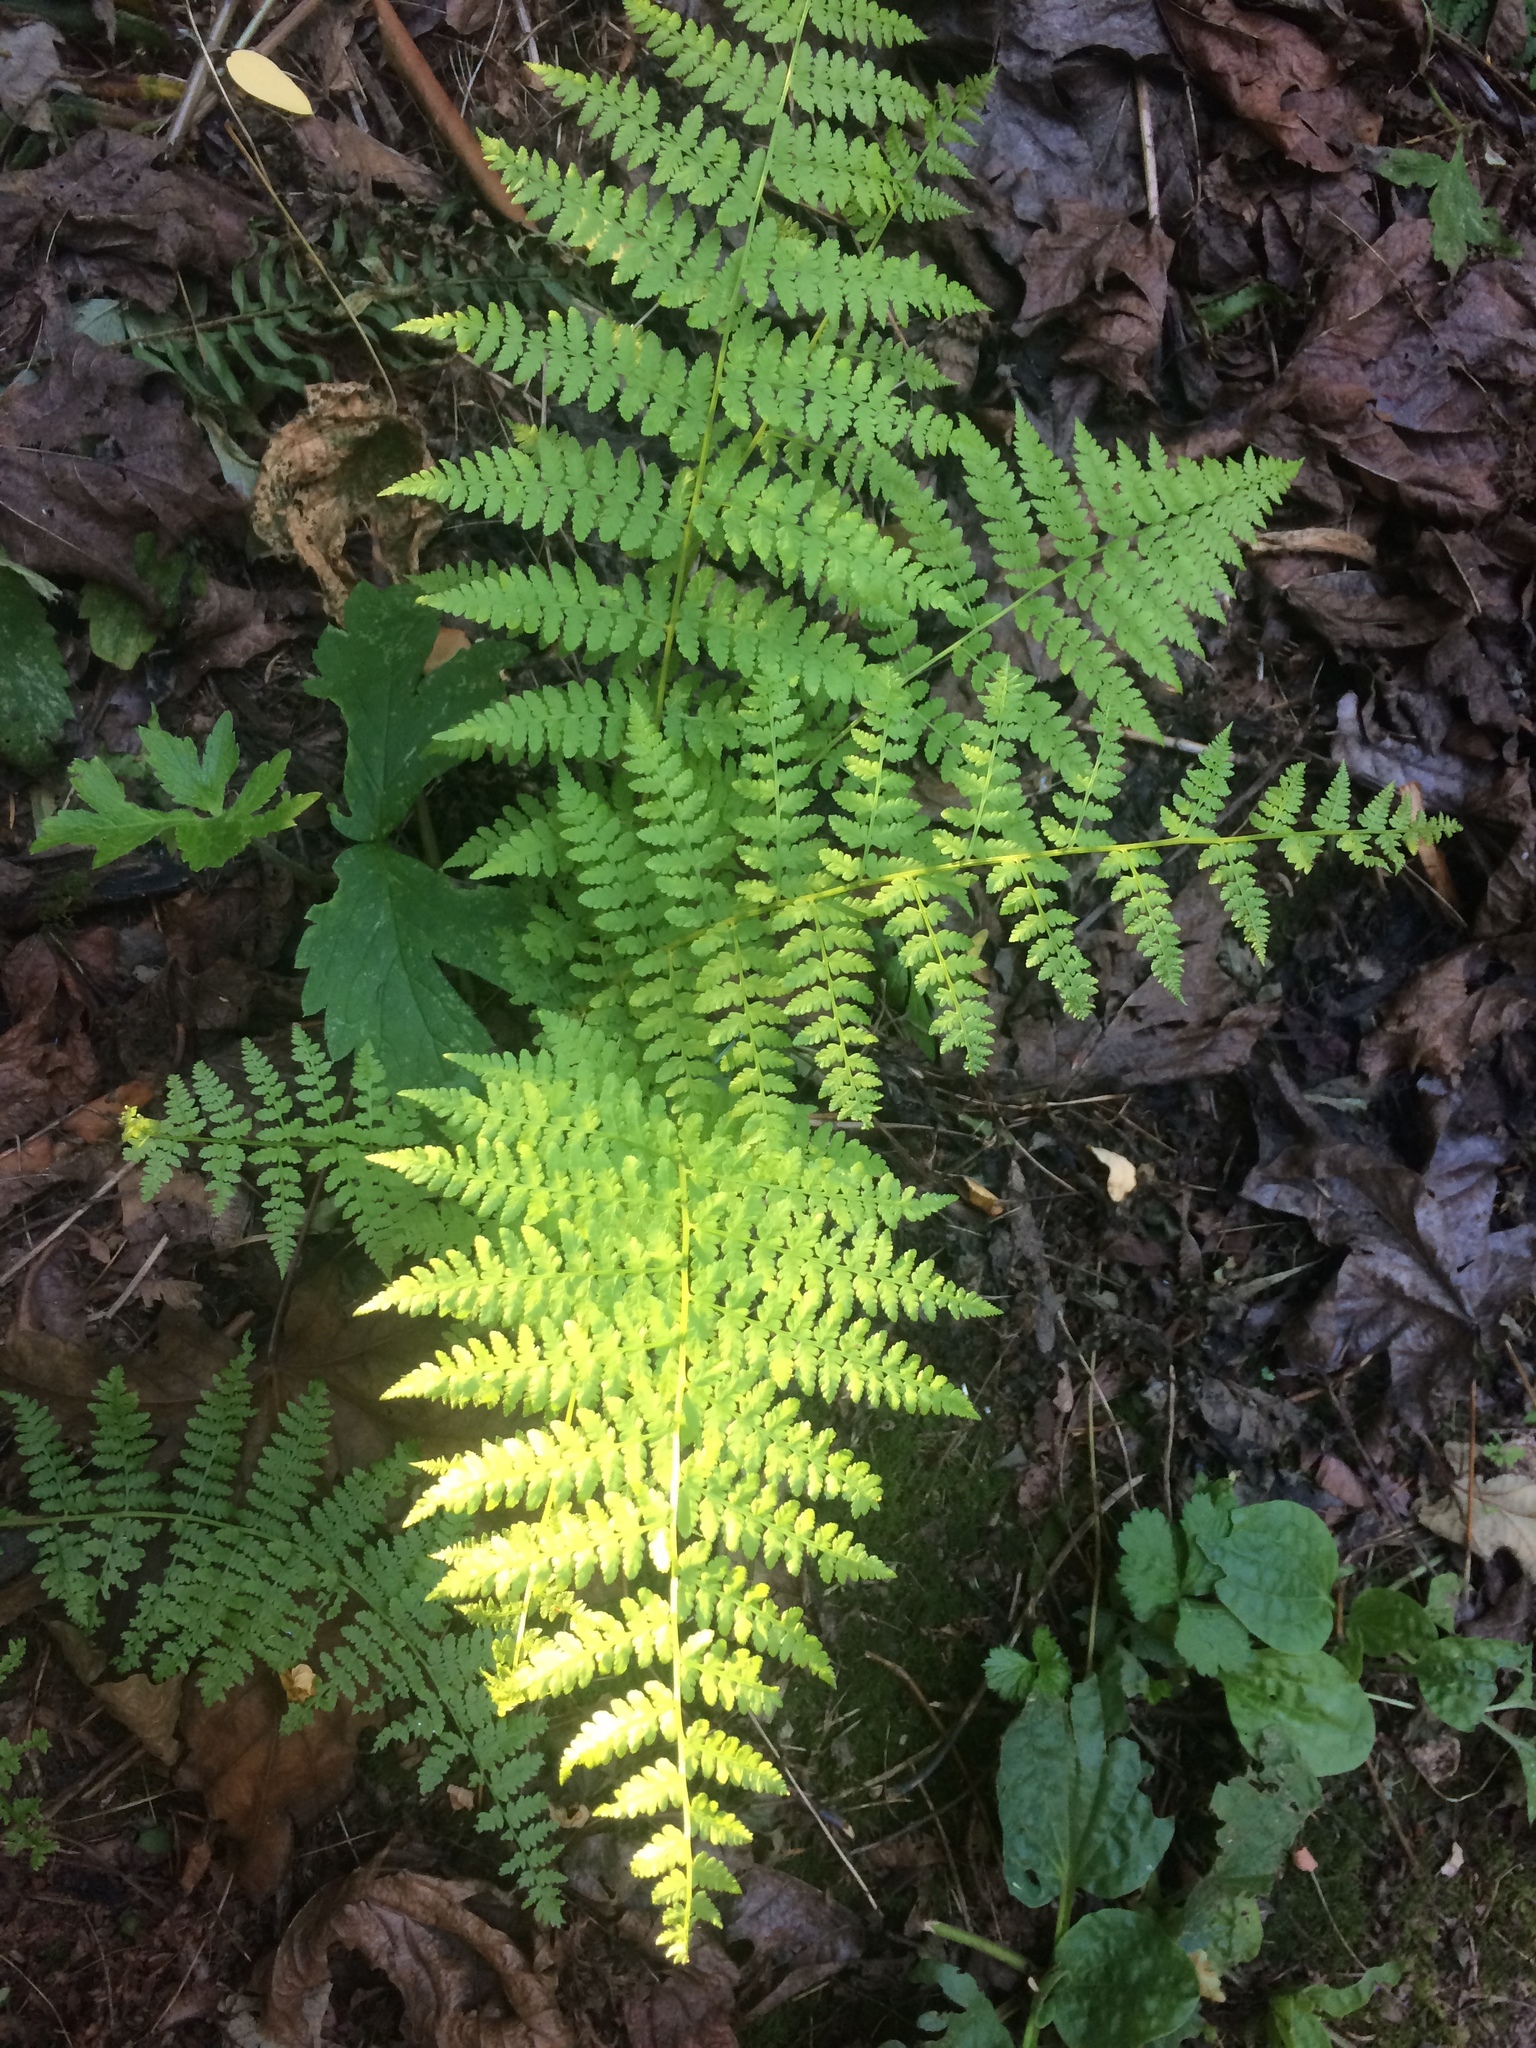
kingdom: Plantae
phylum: Tracheophyta
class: Polypodiopsida
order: Polypodiales
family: Athyriaceae
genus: Athyrium
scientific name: Athyrium filix-femina
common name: Lady fern
